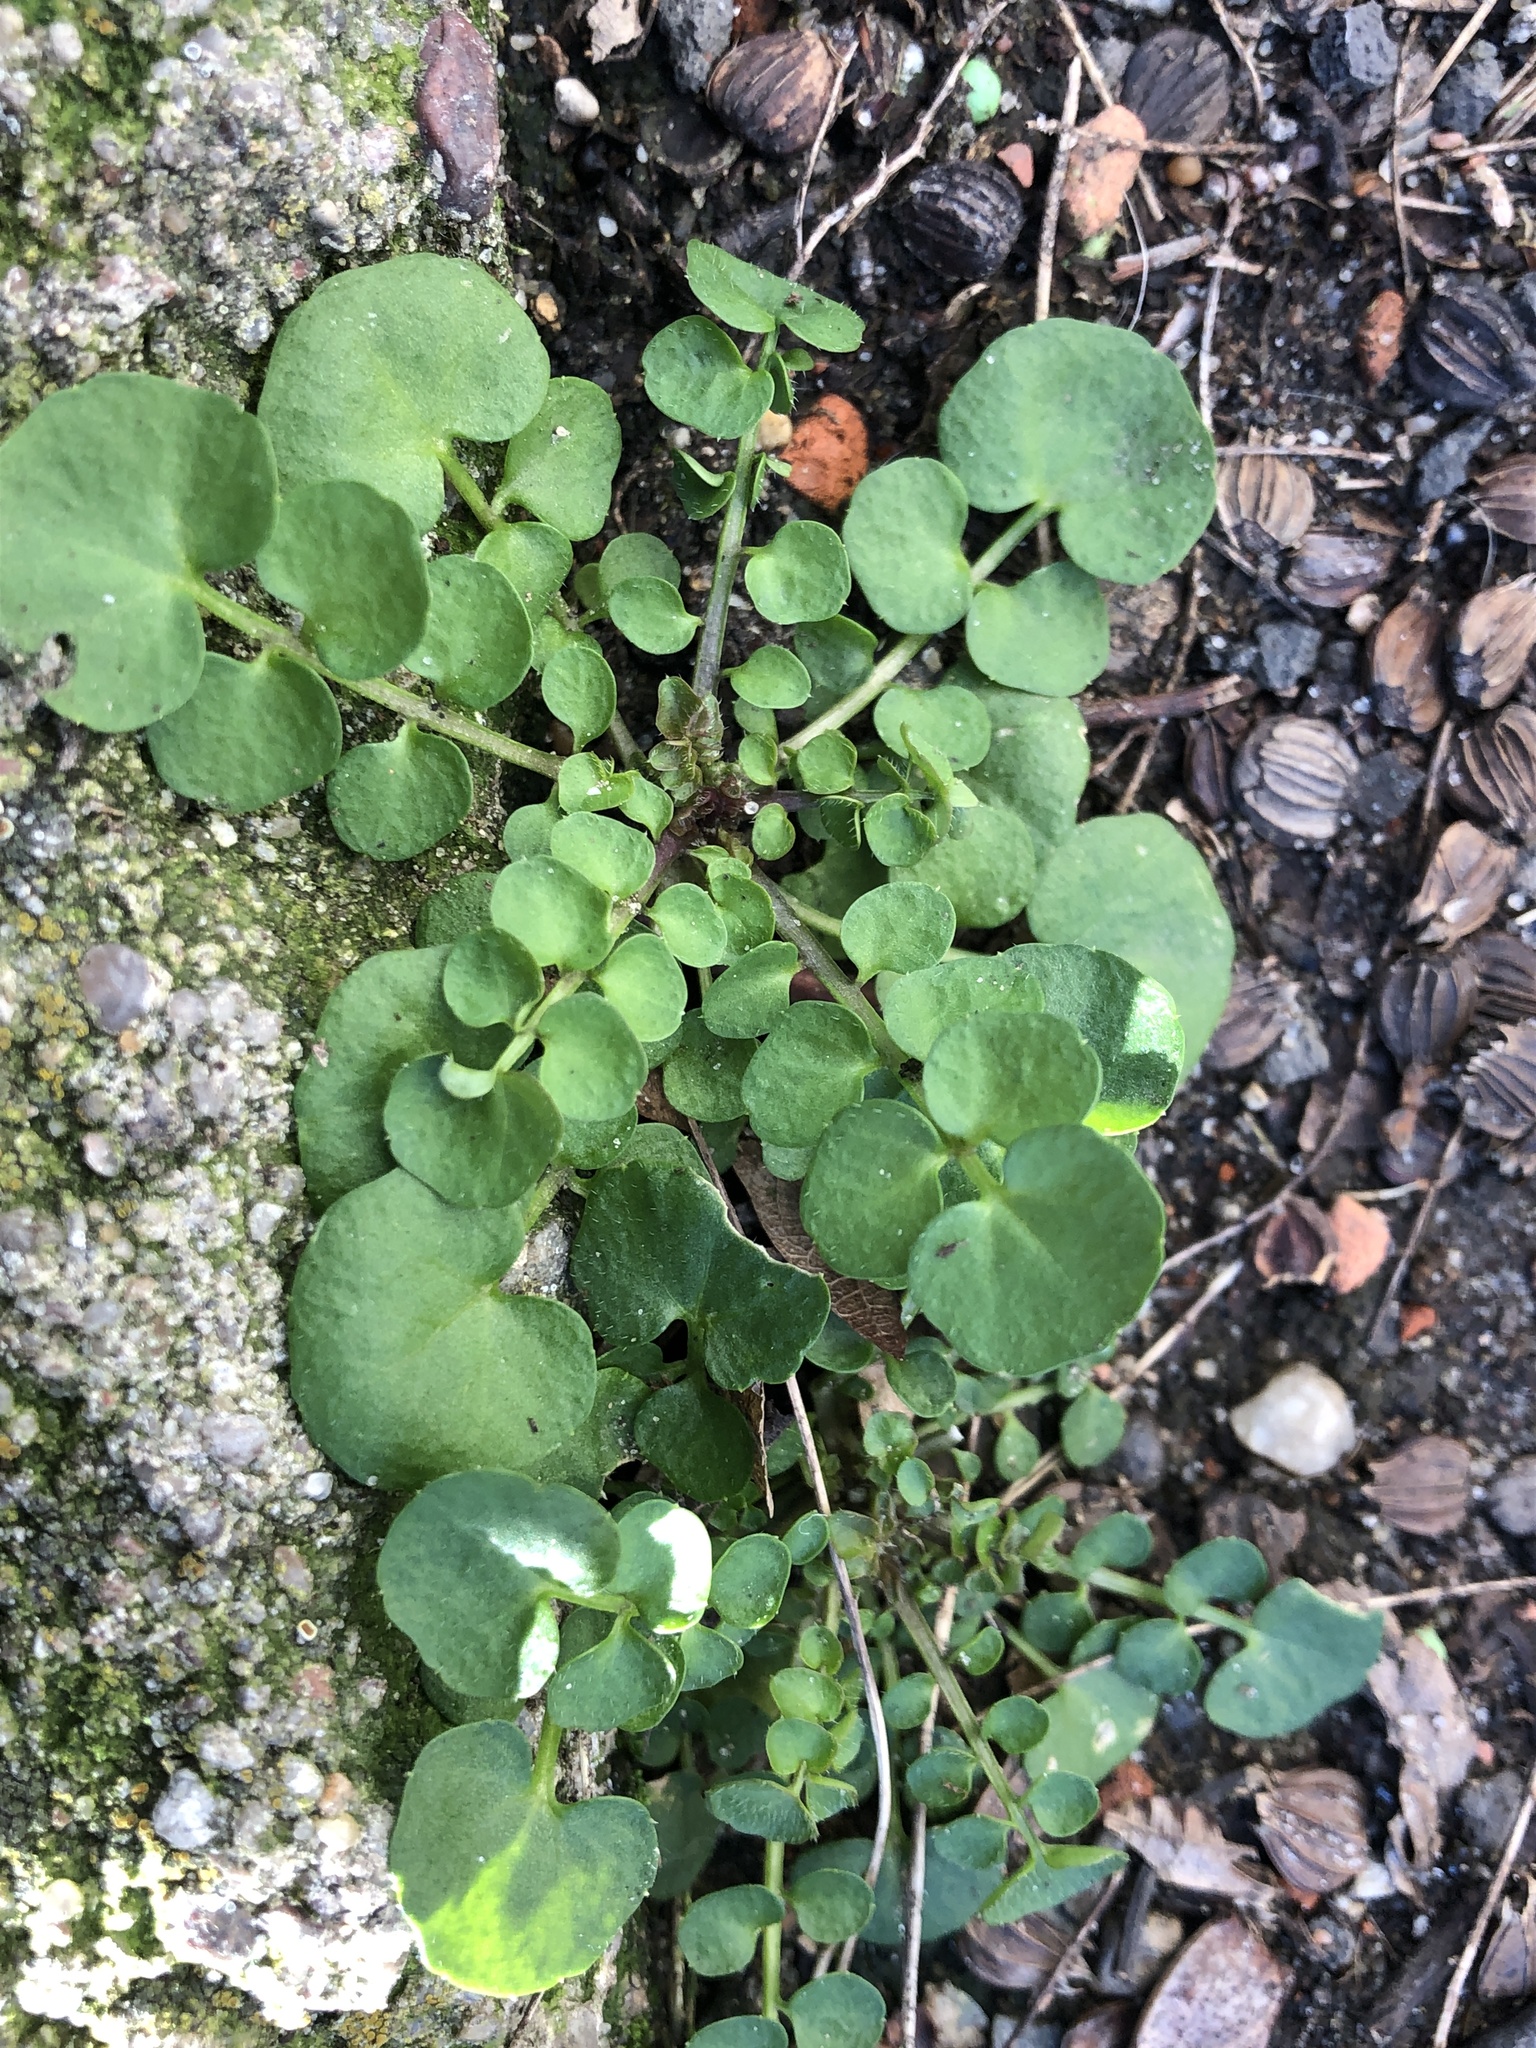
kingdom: Plantae
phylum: Tracheophyta
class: Magnoliopsida
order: Brassicales
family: Brassicaceae
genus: Cardamine
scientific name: Cardamine hirsuta
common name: Hairy bittercress
